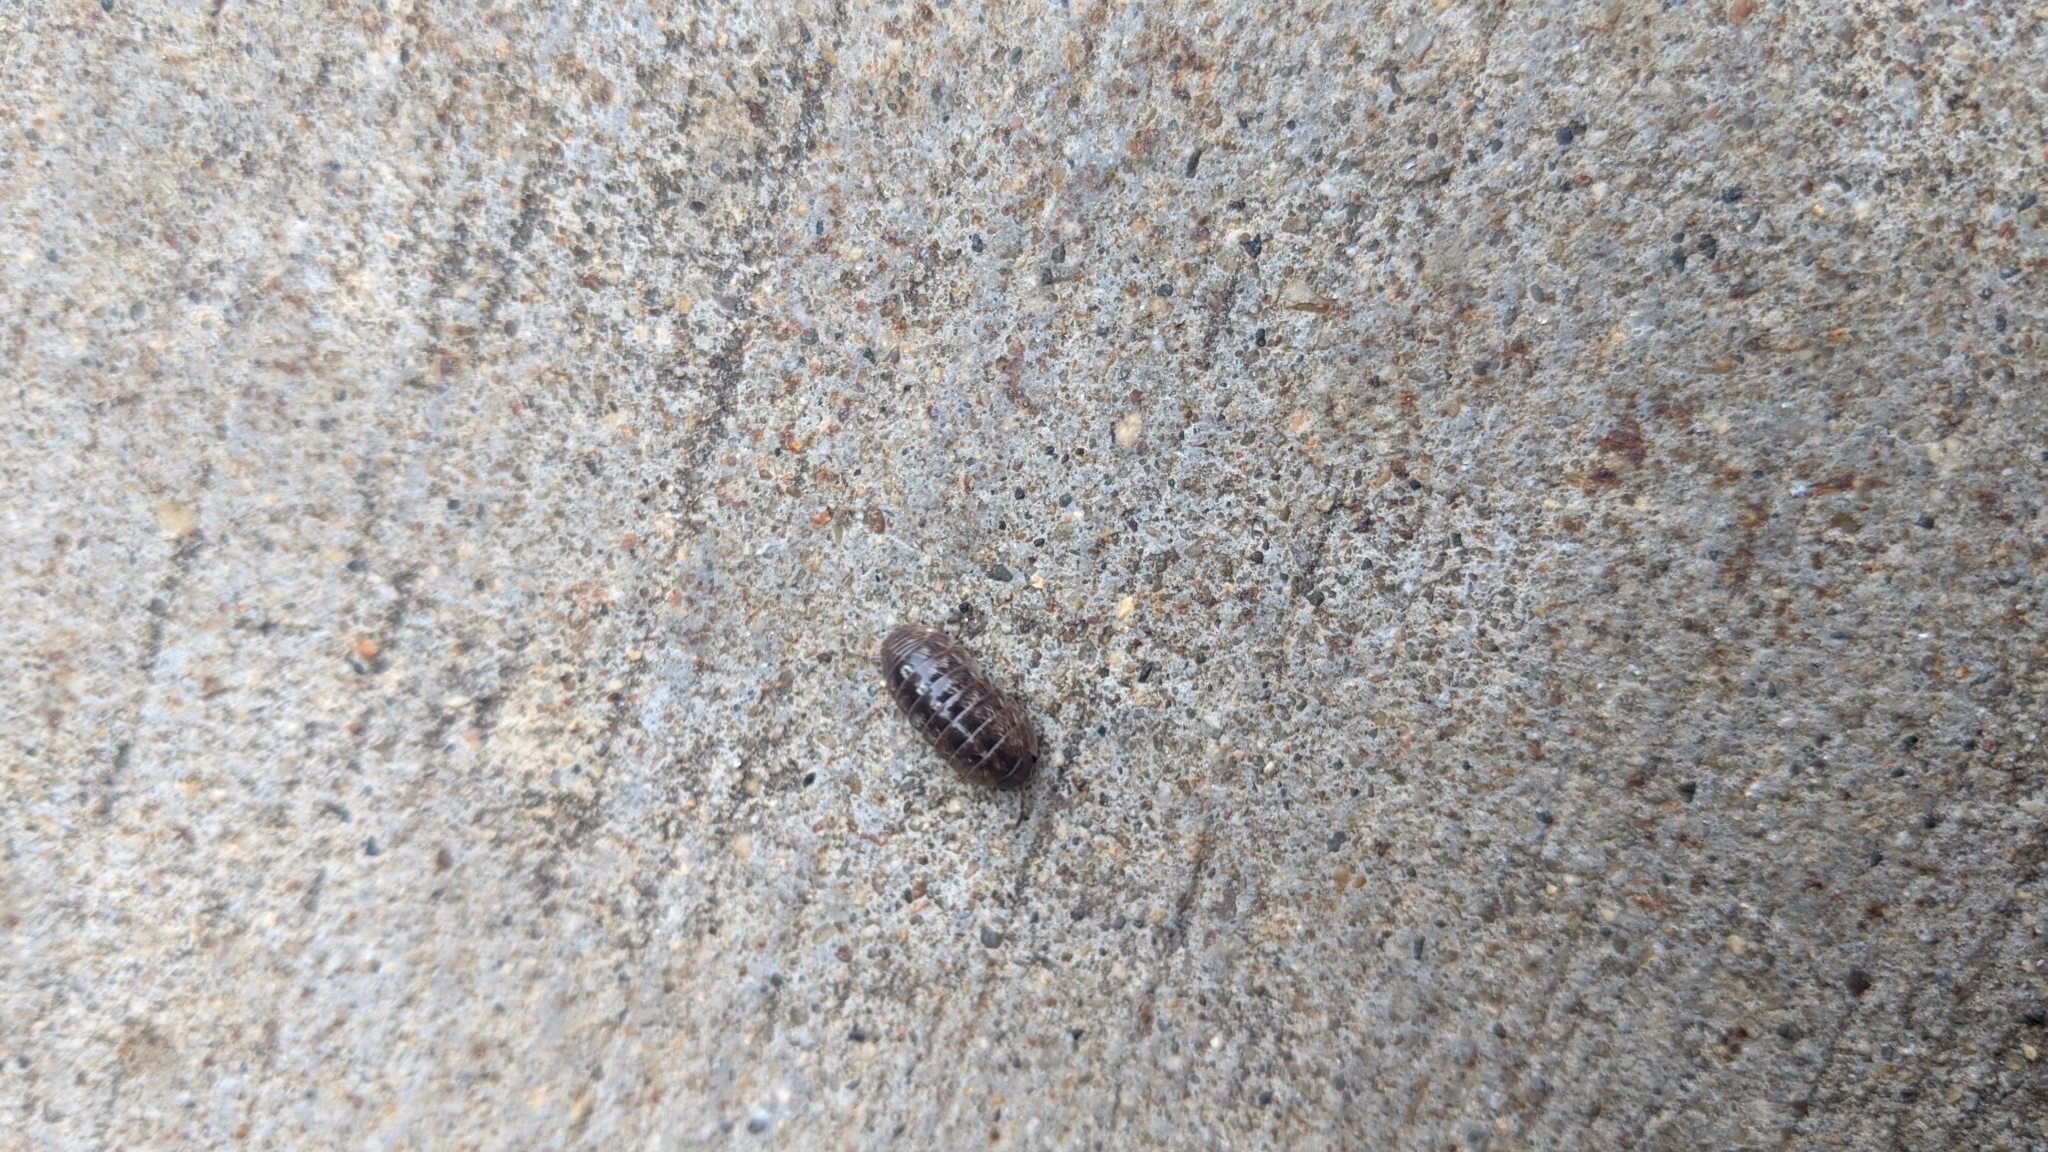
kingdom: Animalia
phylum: Arthropoda
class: Malacostraca
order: Isopoda
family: Armadillidiidae
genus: Armadillidium
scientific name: Armadillidium vulgare
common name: Common pill woodlouse
